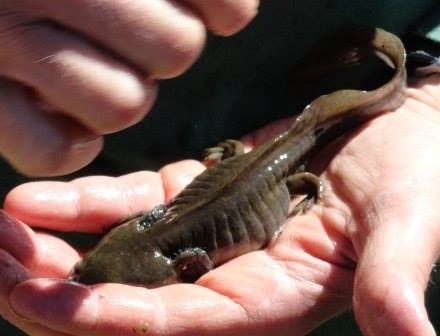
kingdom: Animalia
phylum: Chordata
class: Amphibia
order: Caudata
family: Ambystomatidae
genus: Ambystoma
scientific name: Ambystoma mavortium
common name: Western tiger salamander
